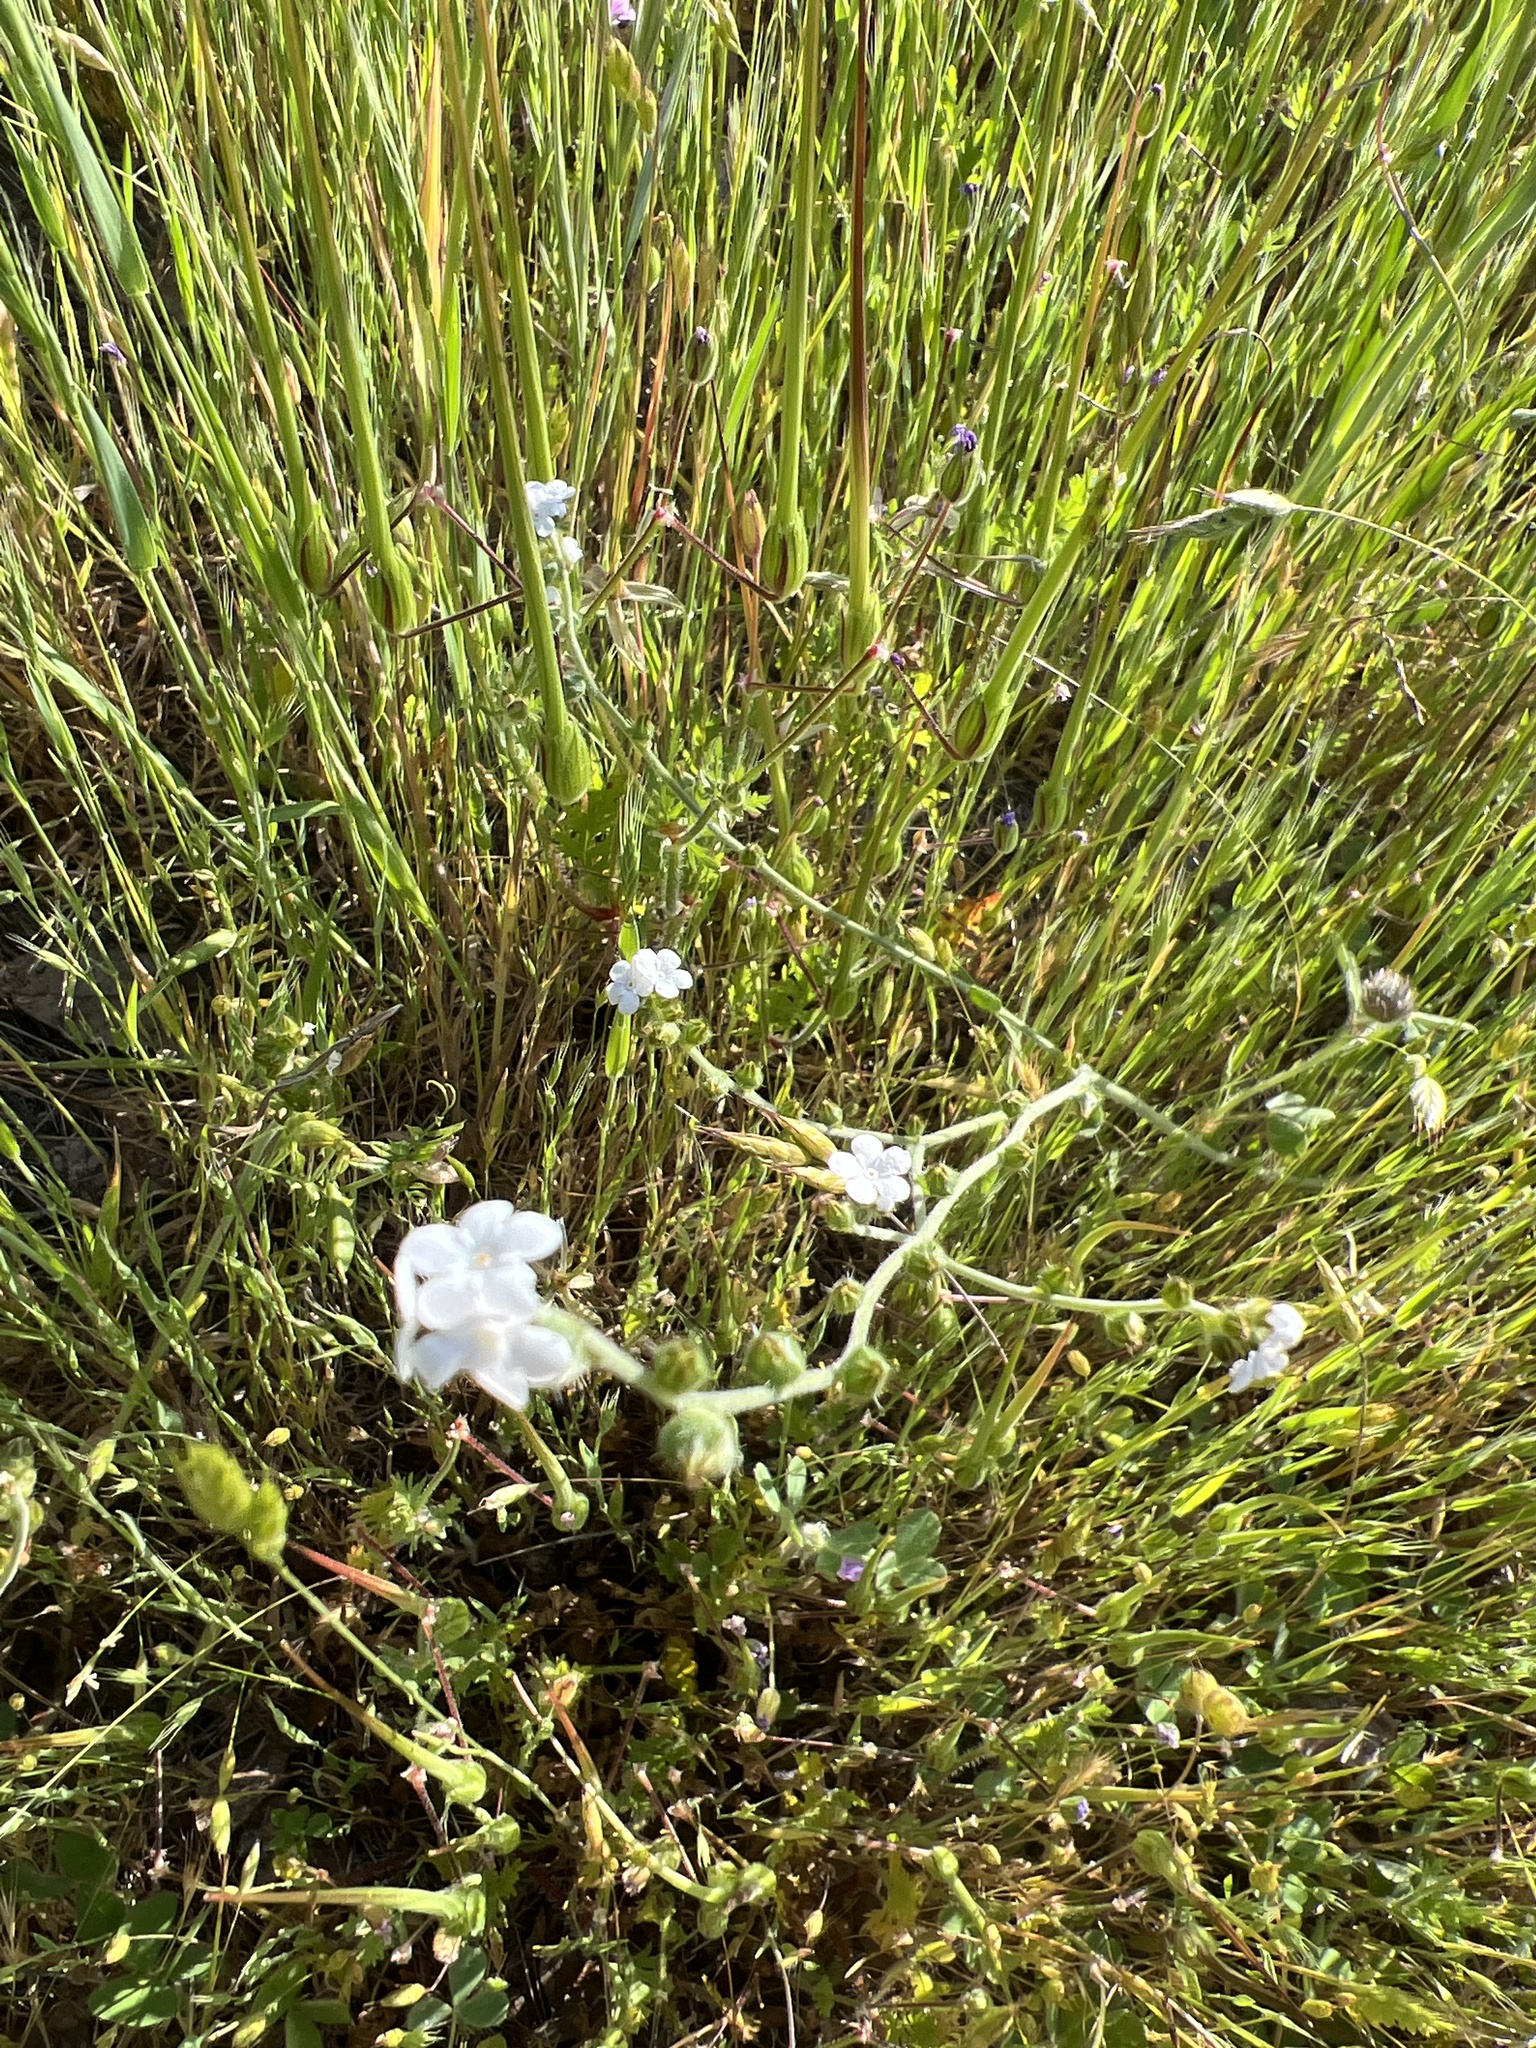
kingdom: Plantae
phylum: Tracheophyta
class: Magnoliopsida
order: Boraginales
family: Boraginaceae
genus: Plagiobothrys
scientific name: Plagiobothrys nothofulvus
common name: Popcorn-flower
